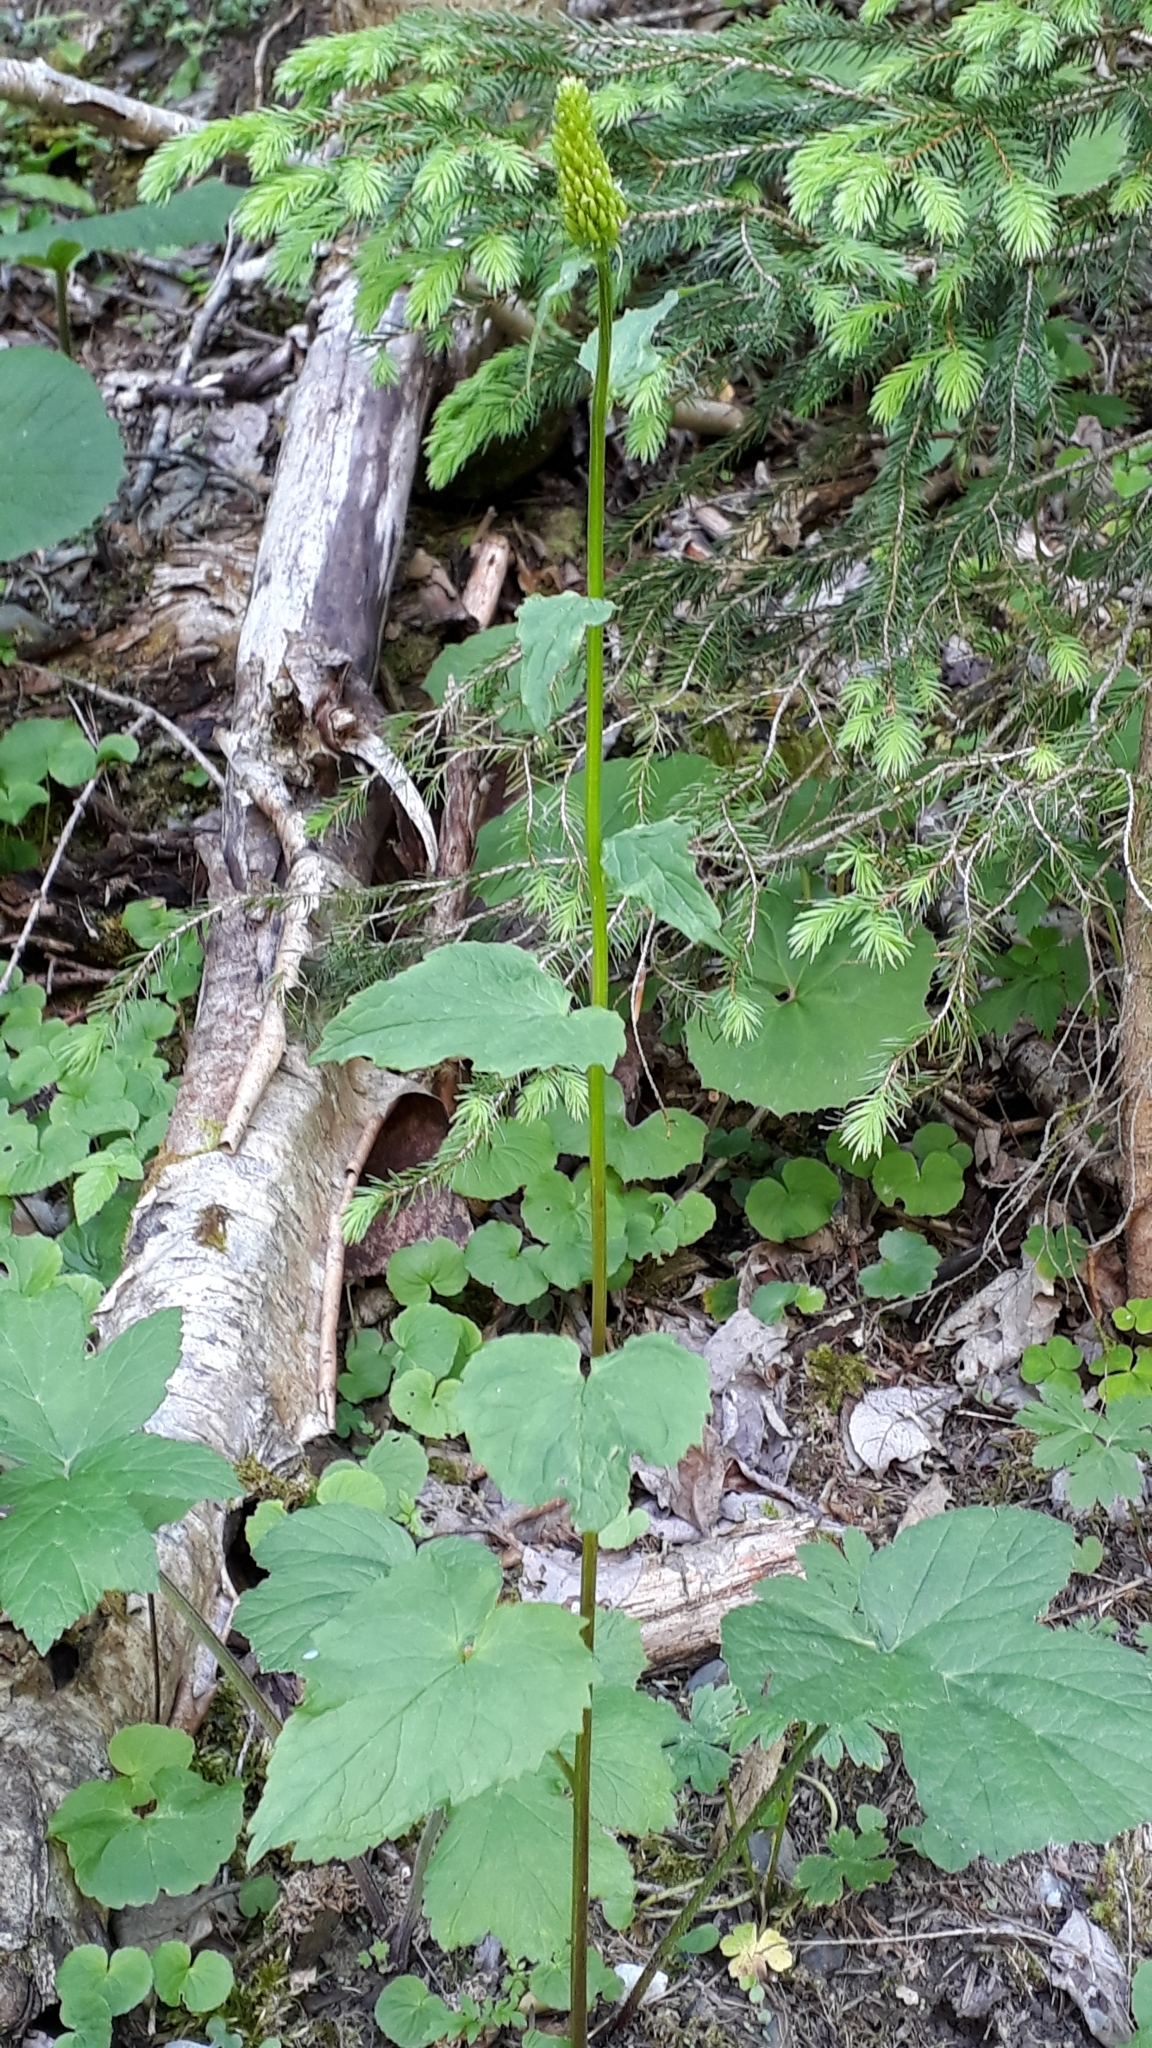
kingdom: Plantae
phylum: Tracheophyta
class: Magnoliopsida
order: Asterales
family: Campanulaceae
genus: Phyteuma
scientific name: Phyteuma ovatum
